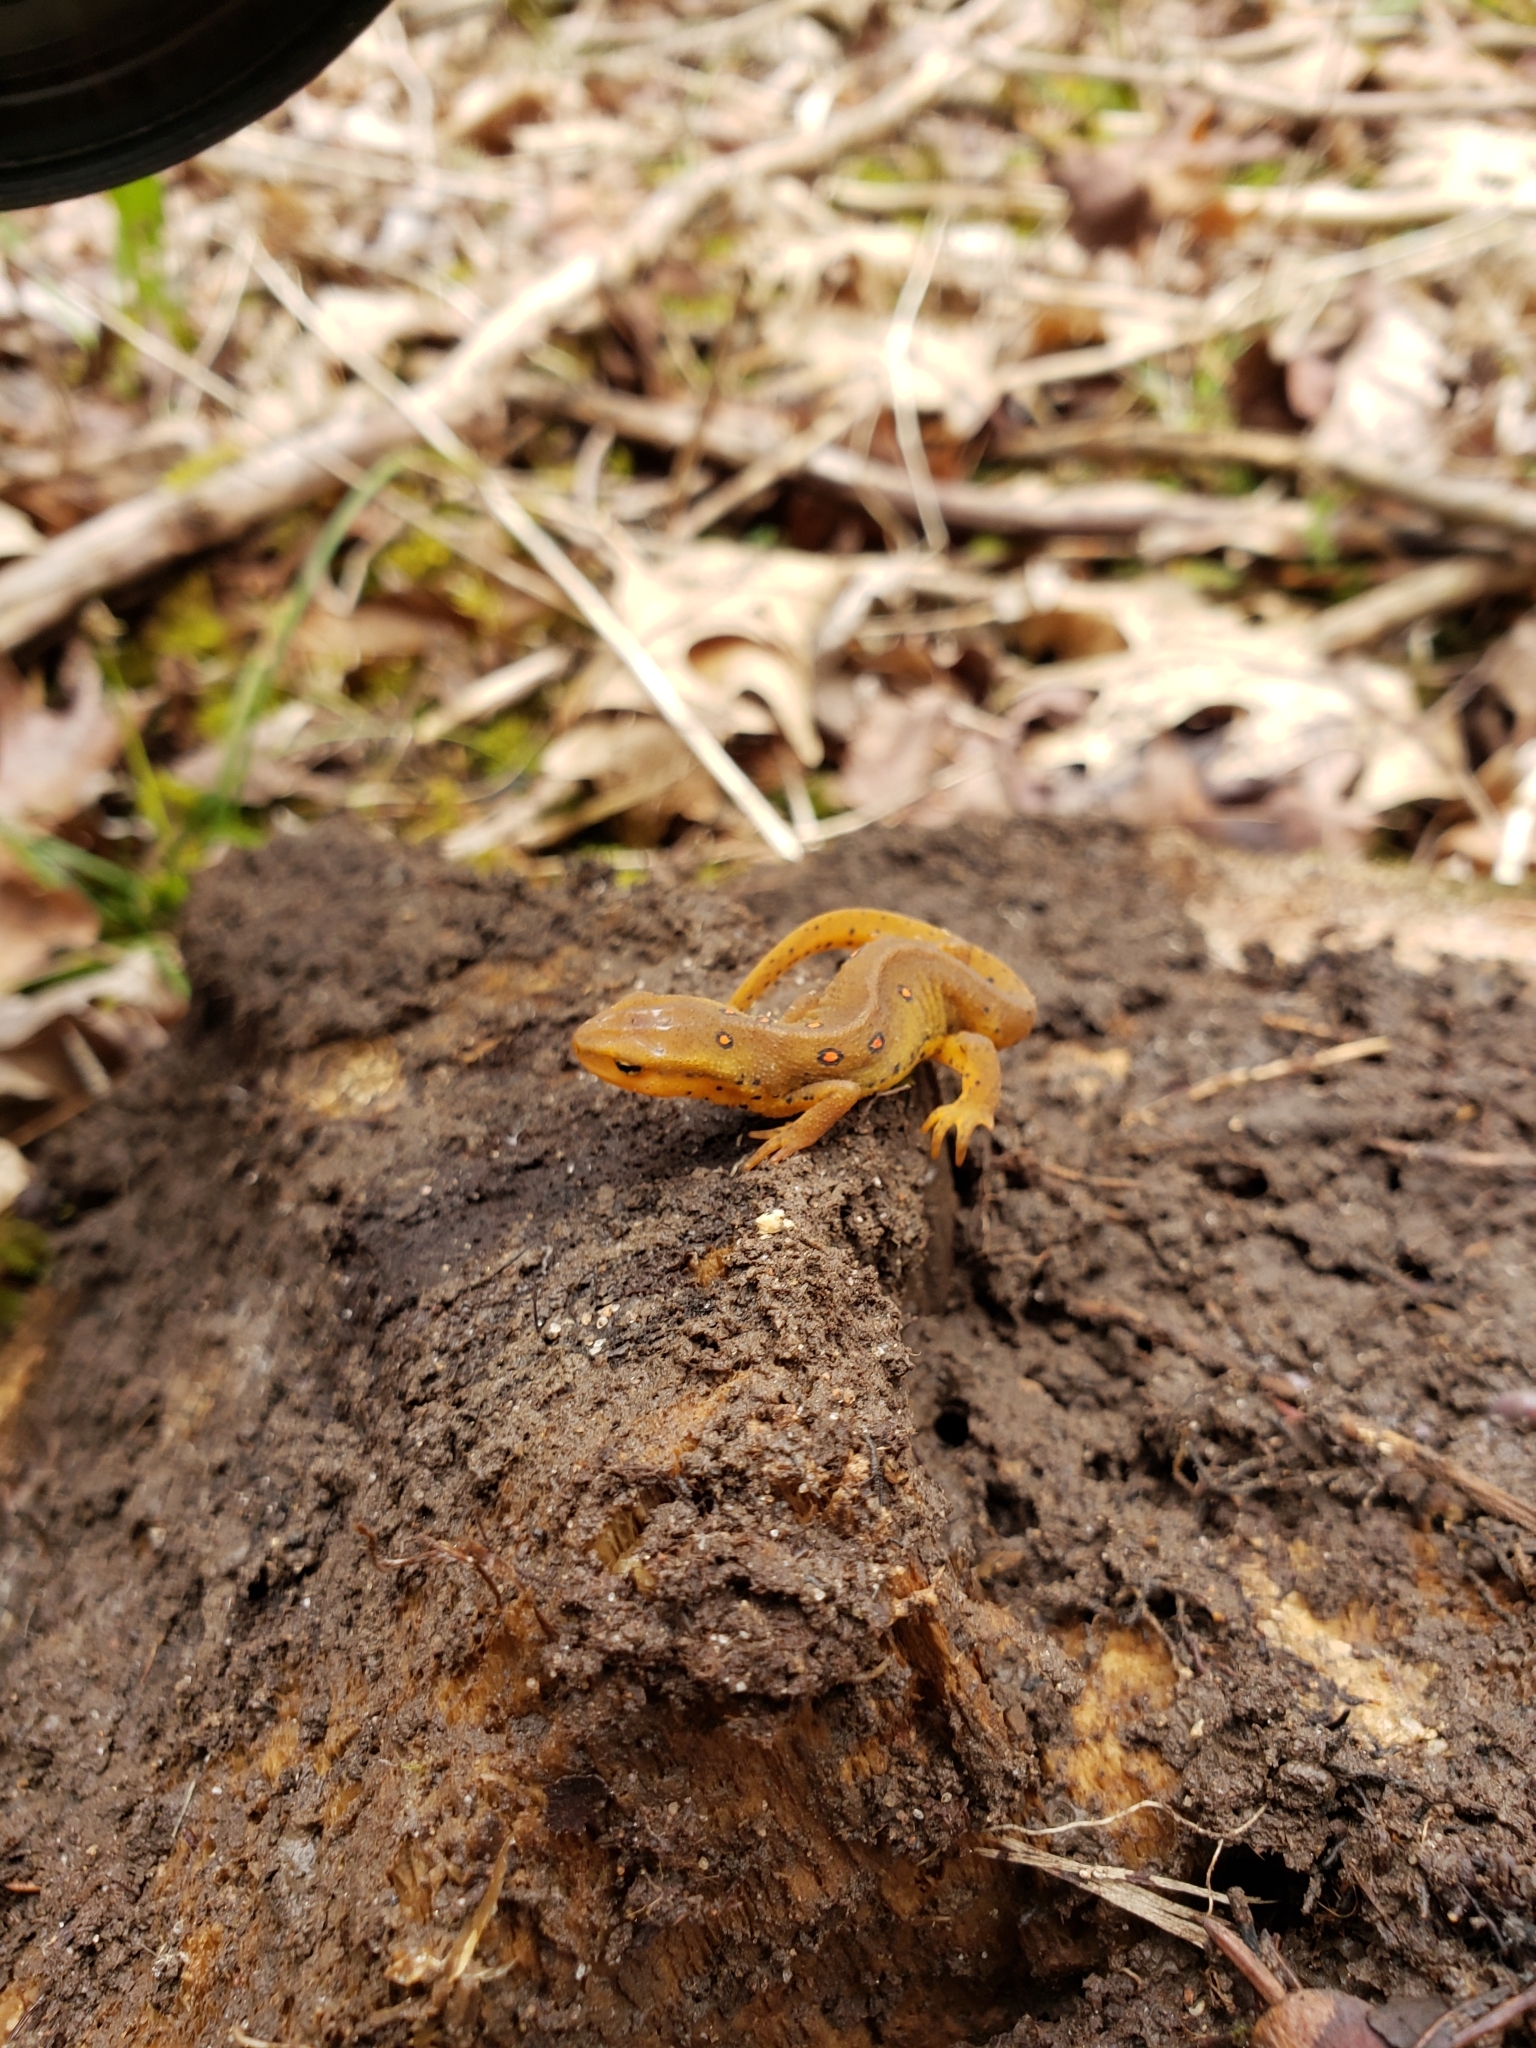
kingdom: Animalia
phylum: Chordata
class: Amphibia
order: Caudata
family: Salamandridae
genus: Notophthalmus
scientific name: Notophthalmus viridescens
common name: Eastern newt
